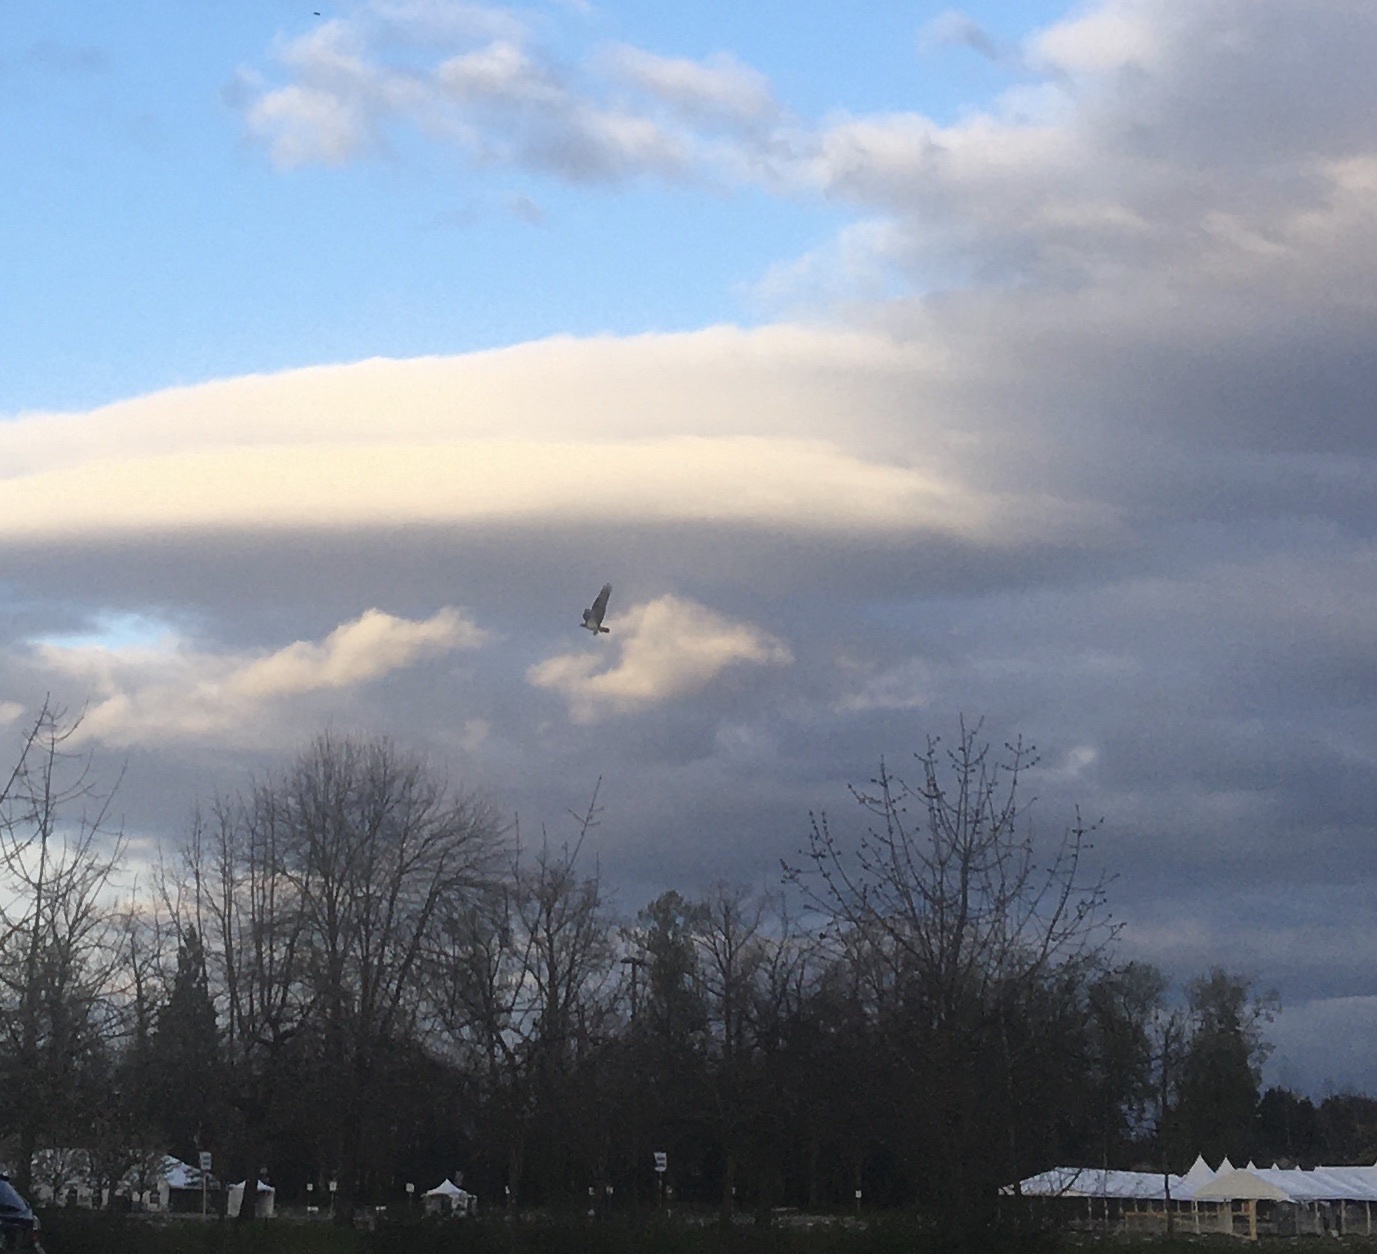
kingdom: Animalia
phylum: Chordata
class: Aves
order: Accipitriformes
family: Pandionidae
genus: Pandion
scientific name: Pandion haliaetus
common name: Osprey
